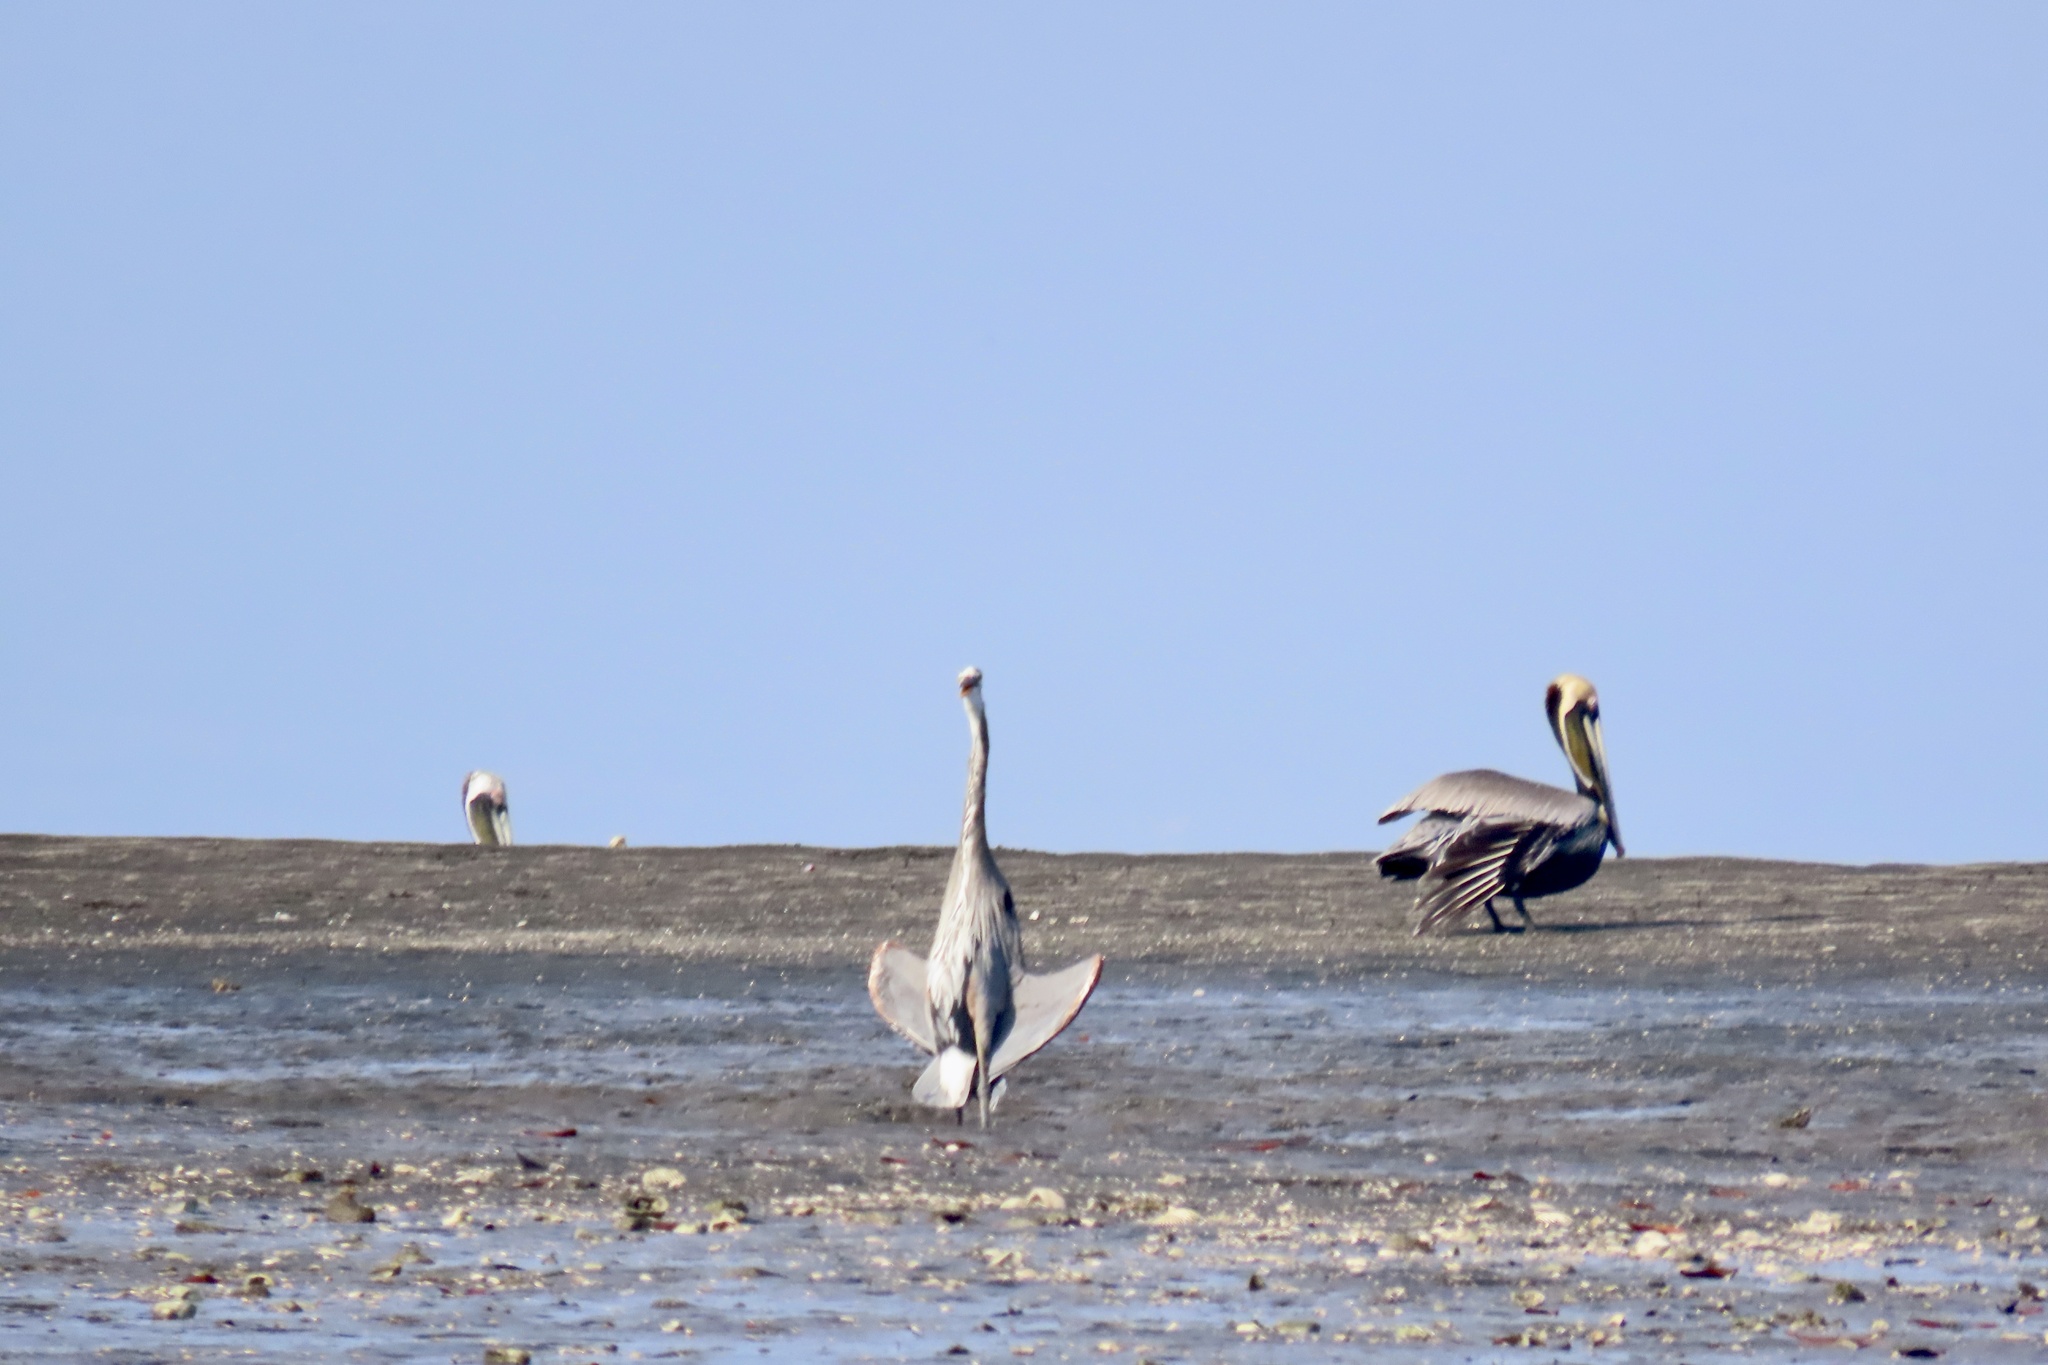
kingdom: Animalia
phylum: Chordata
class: Aves
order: Pelecaniformes
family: Ardeidae
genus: Ardea
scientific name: Ardea herodias
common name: Great blue heron
